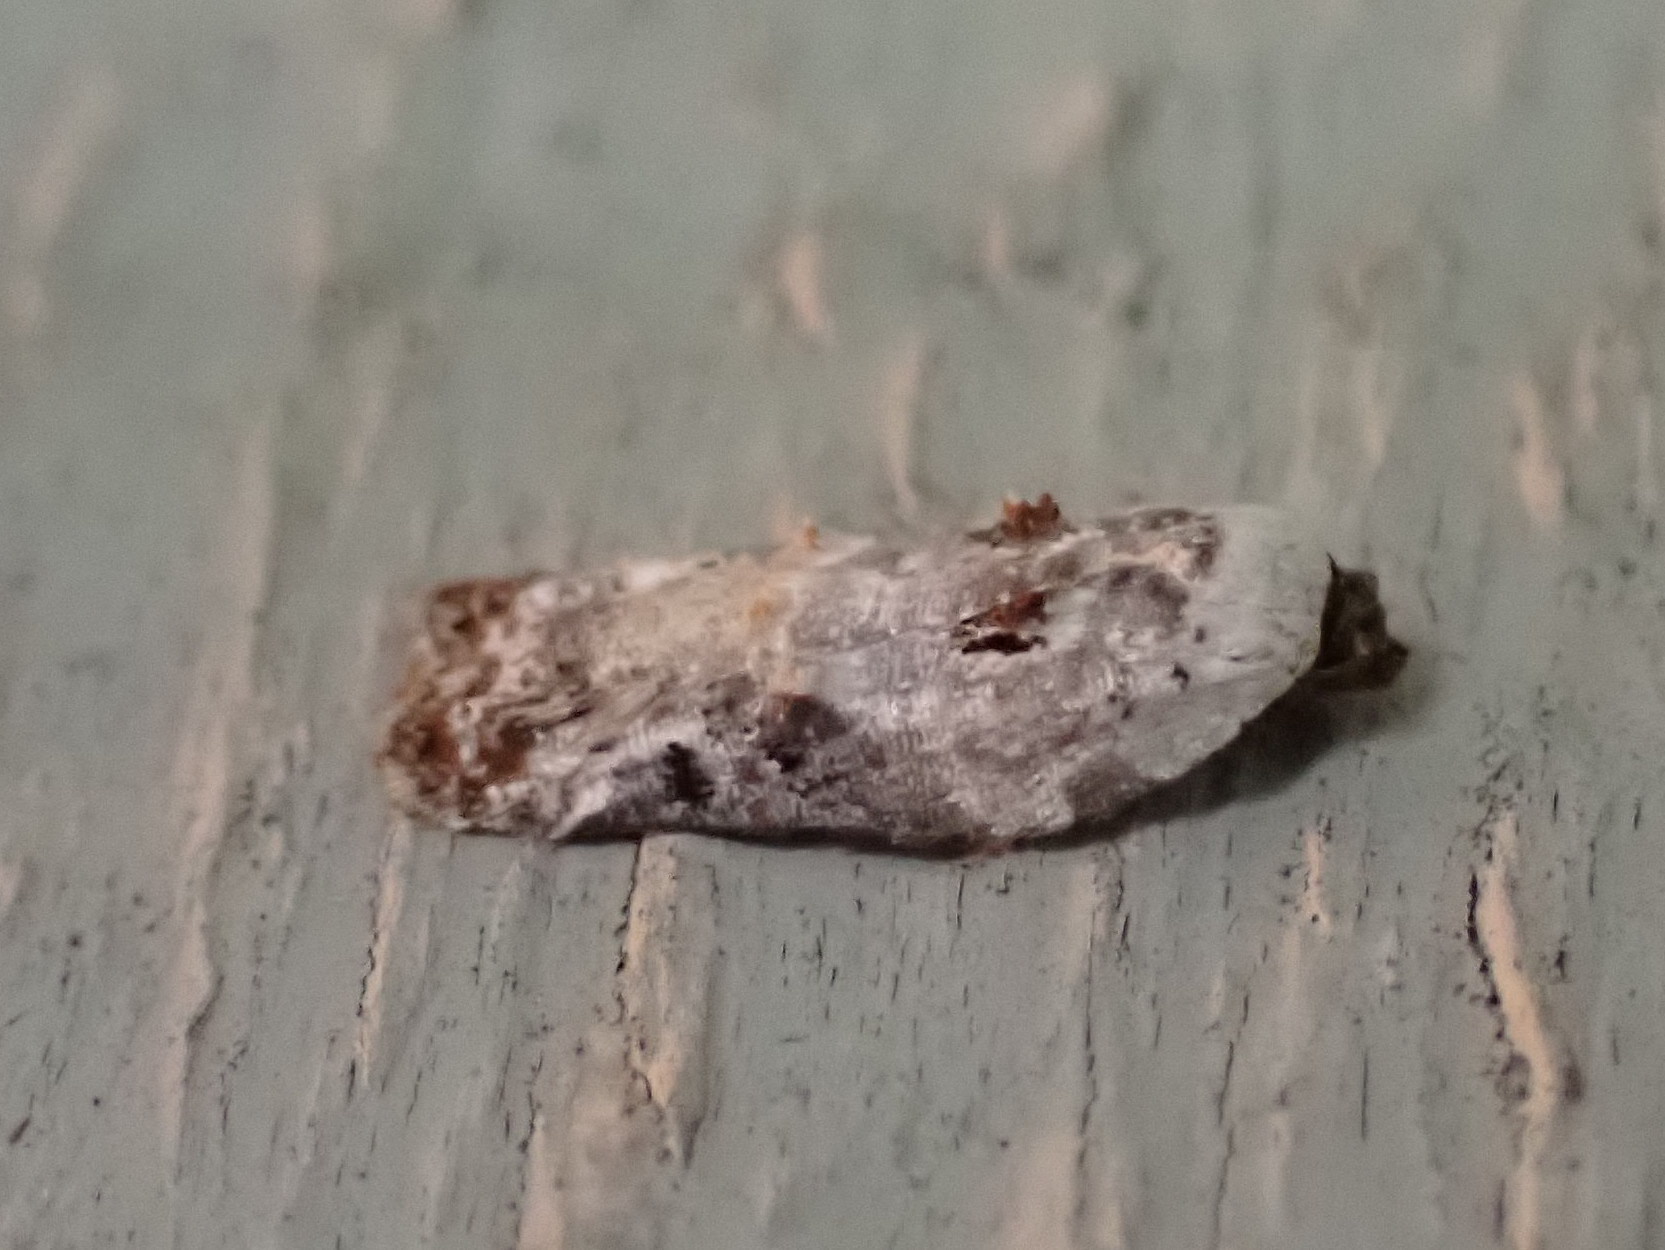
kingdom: Animalia
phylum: Arthropoda
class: Insecta
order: Lepidoptera
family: Tortricidae
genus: Acleris
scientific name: Acleris nivisellana
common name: Snowy-shouldered acleris moth
